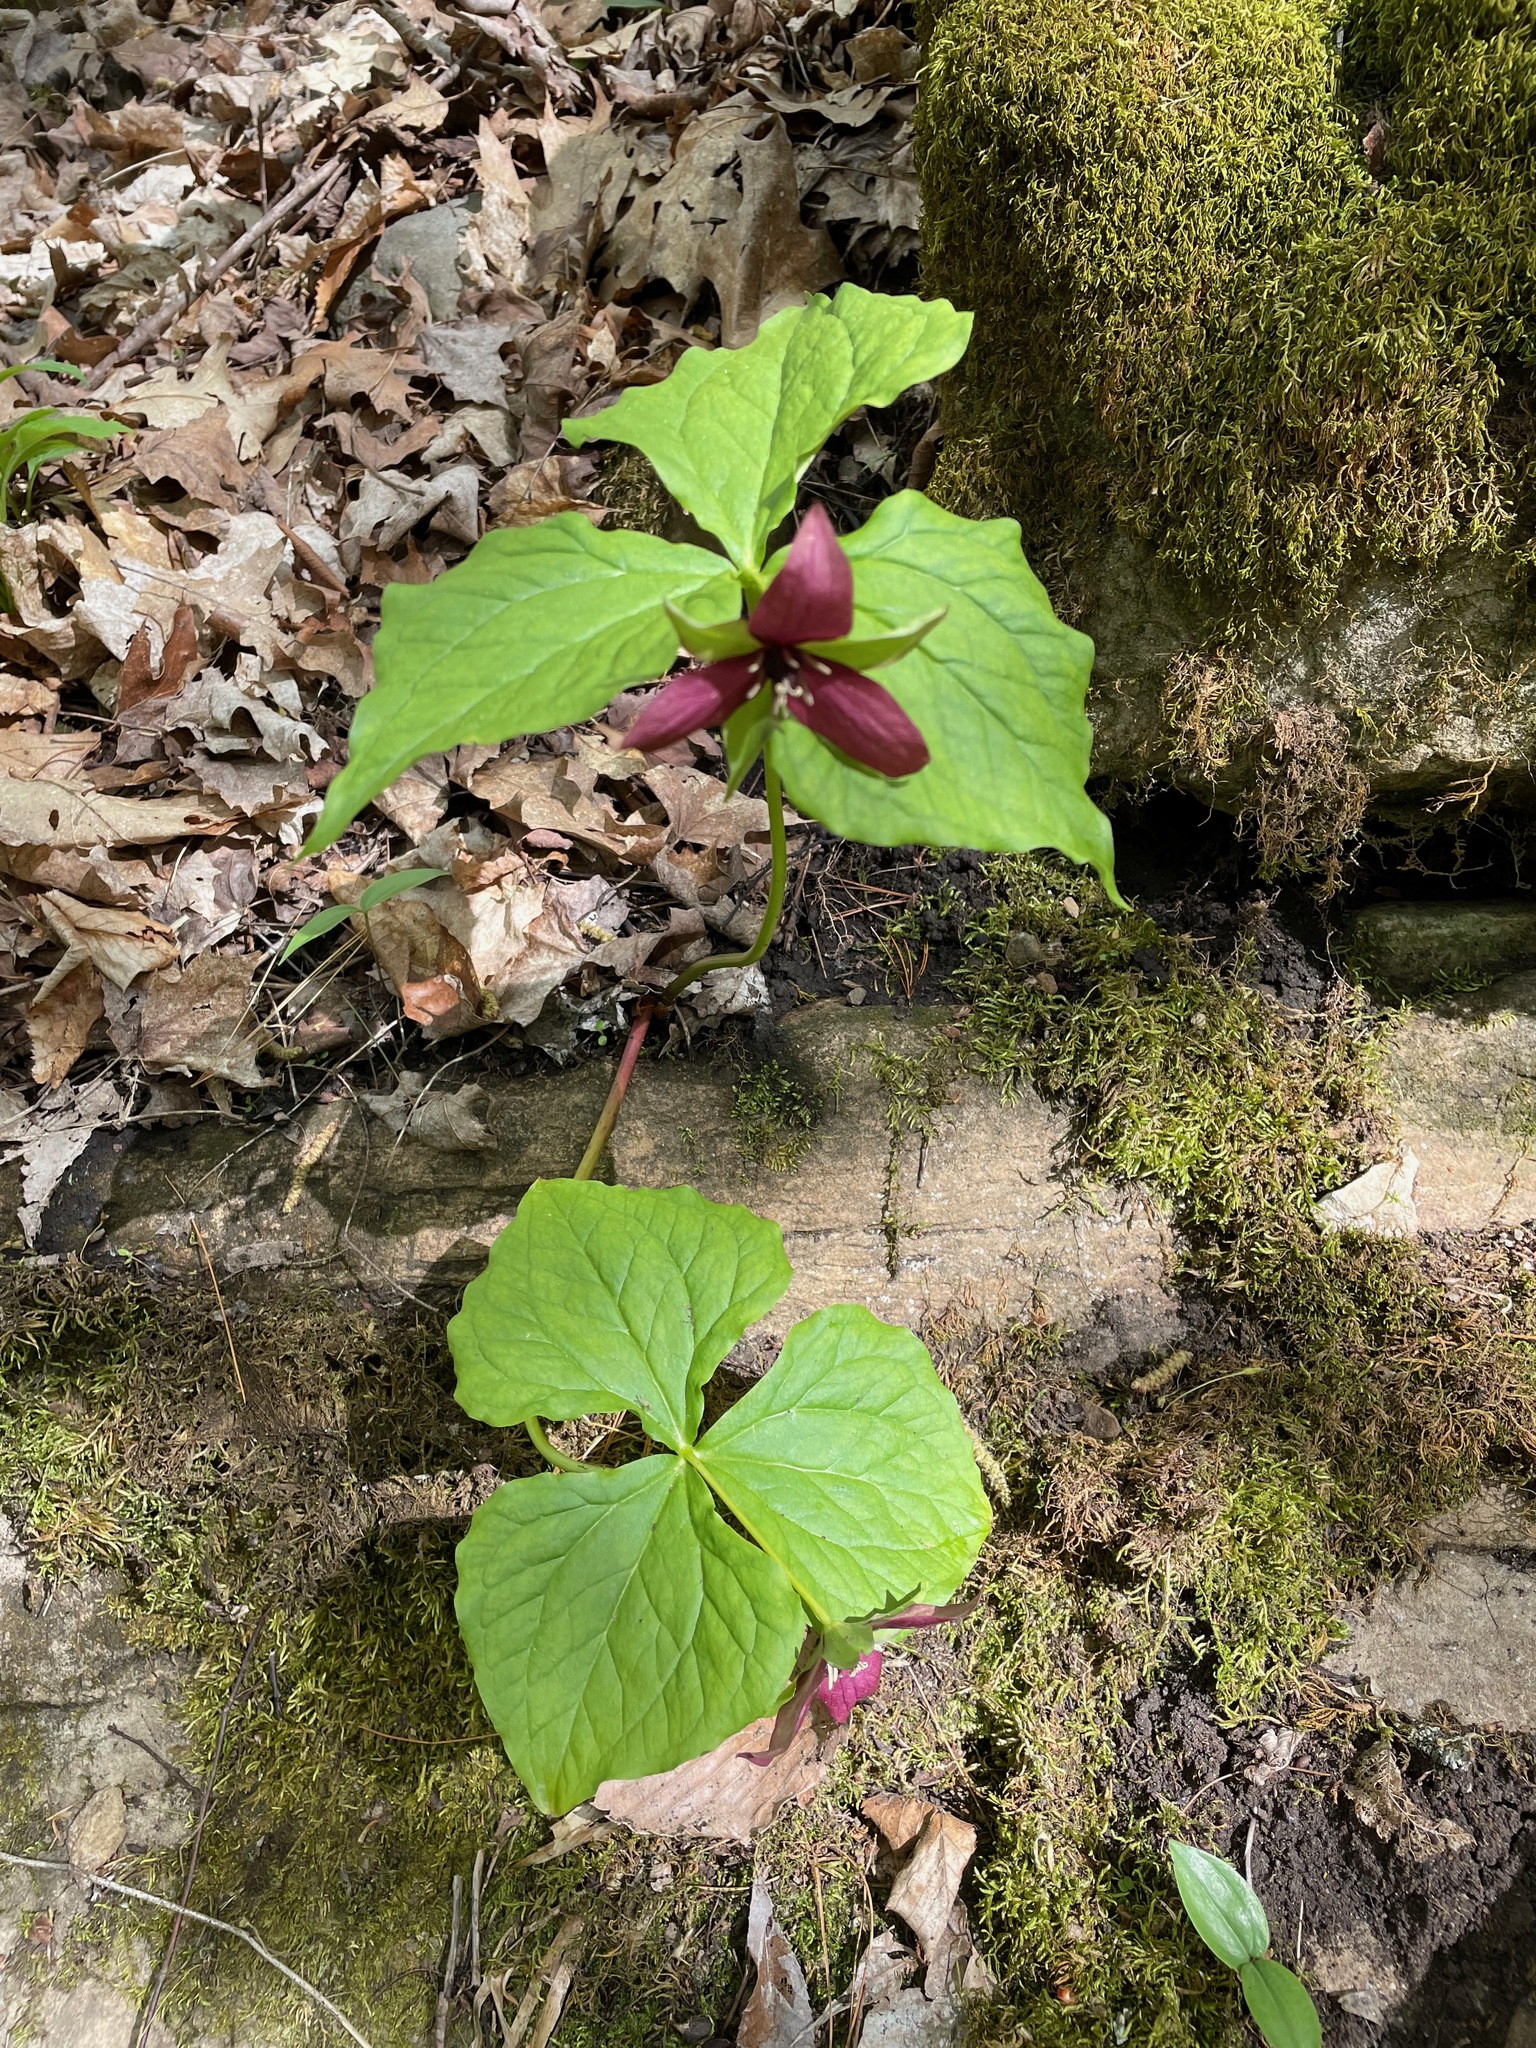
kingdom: Plantae
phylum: Tracheophyta
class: Liliopsida
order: Liliales
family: Melanthiaceae
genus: Trillium
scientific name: Trillium erectum
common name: Purple trillium
